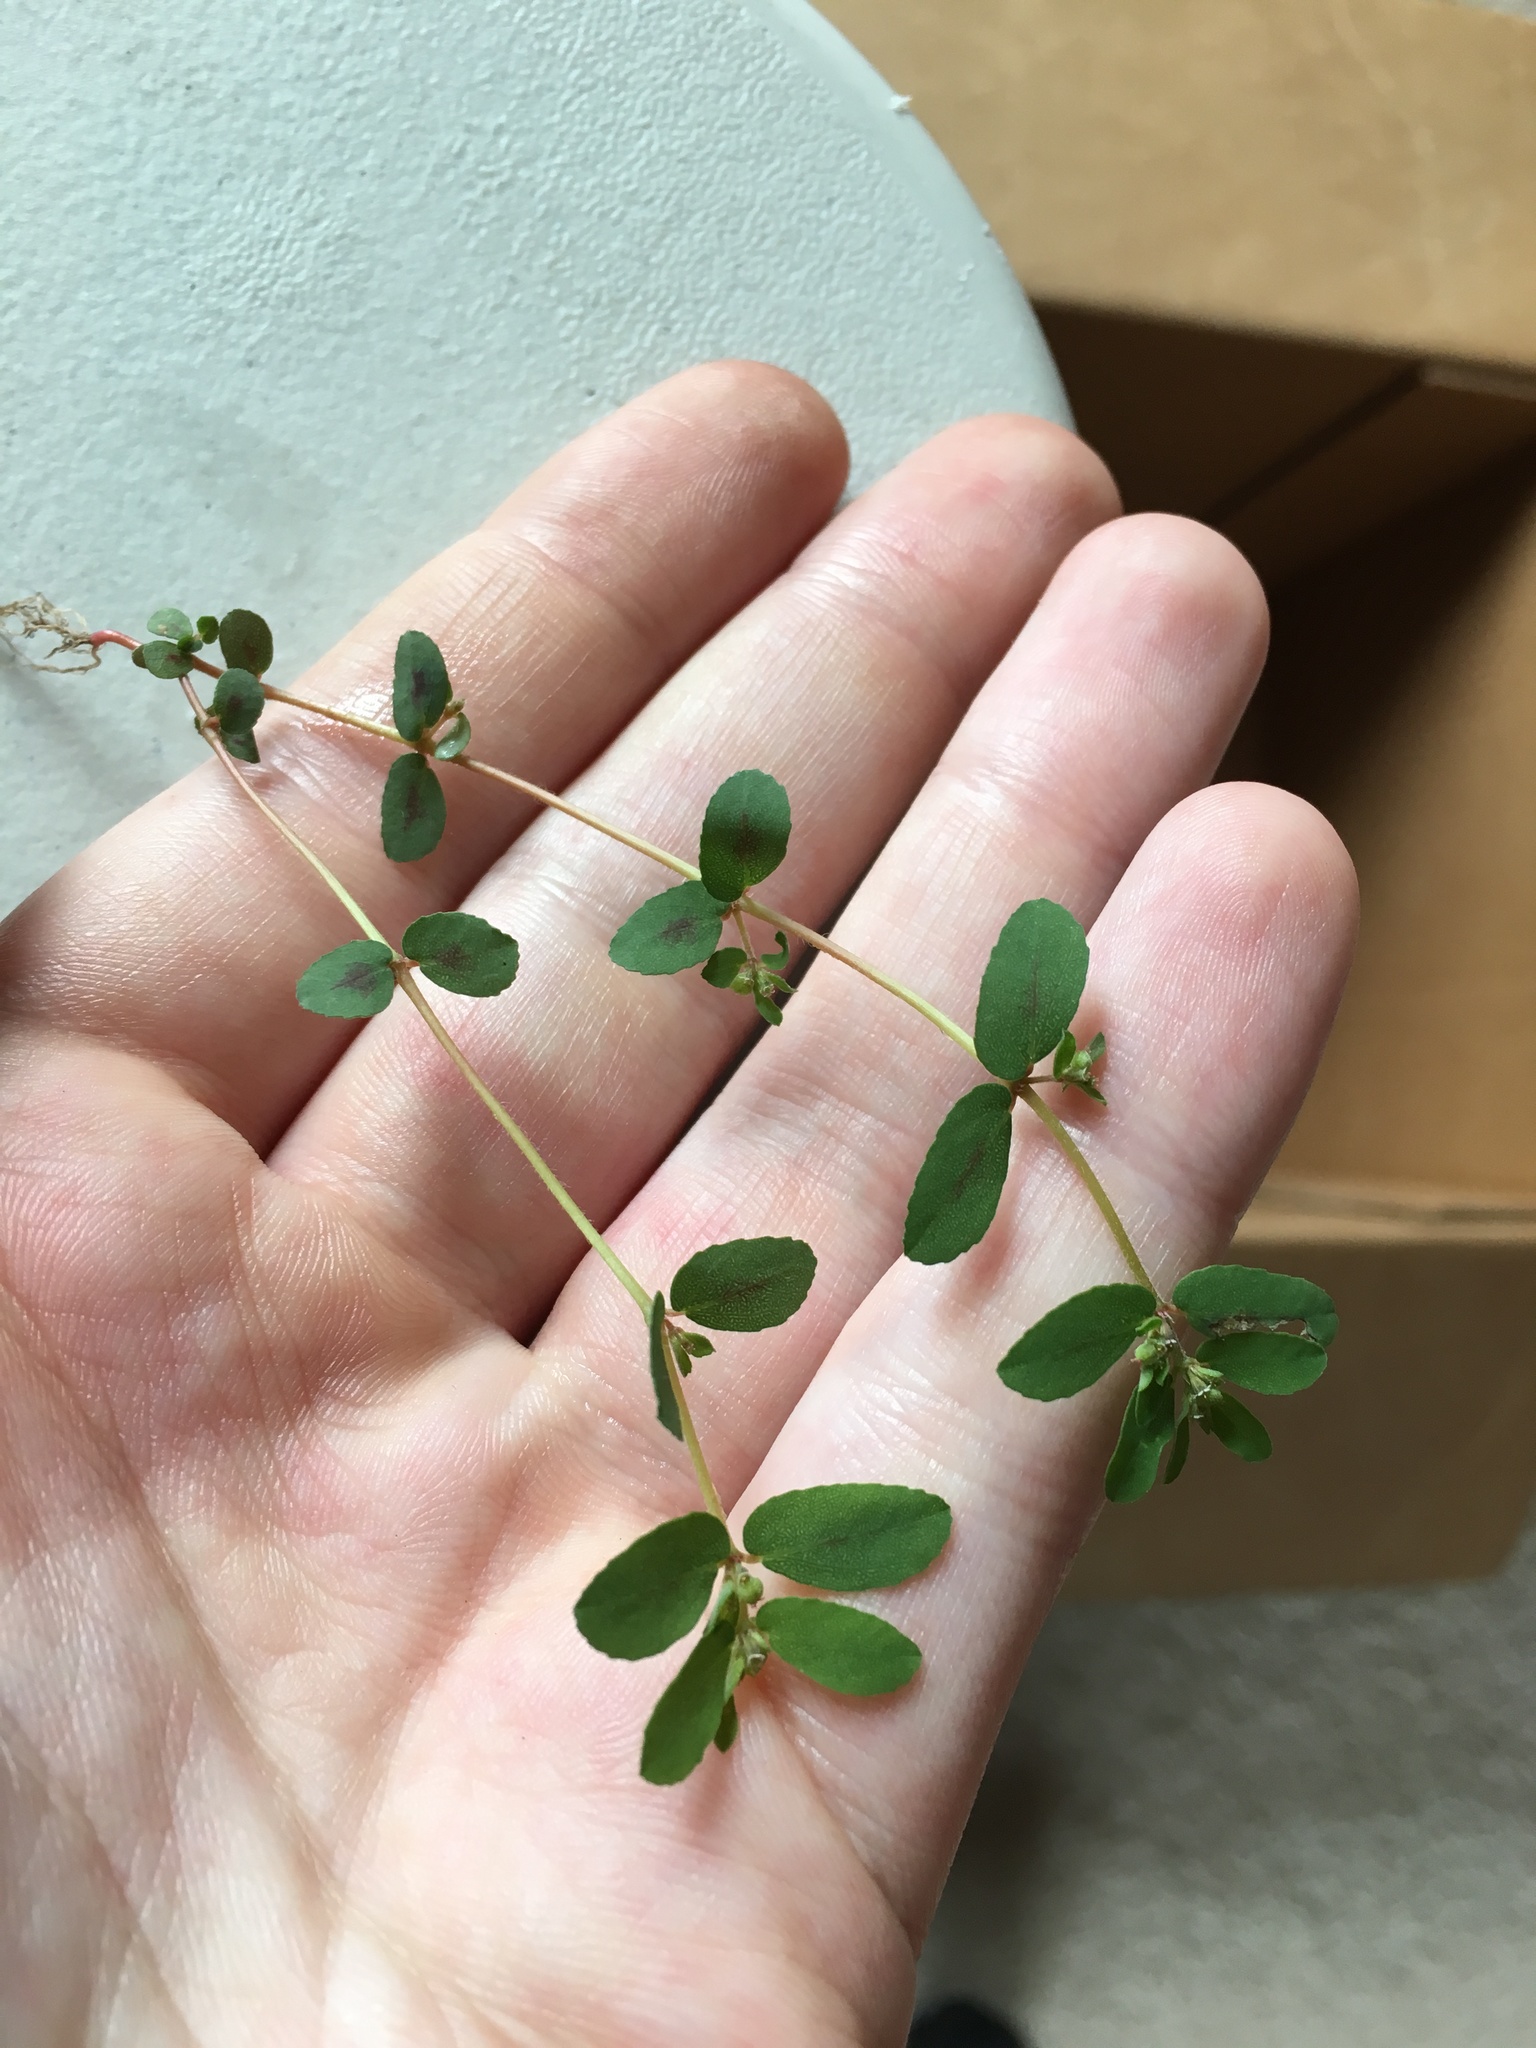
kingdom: Plantae
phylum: Tracheophyta
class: Magnoliopsida
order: Malpighiales
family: Euphorbiaceae
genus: Euphorbia
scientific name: Euphorbia maculata
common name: Spotted spurge
